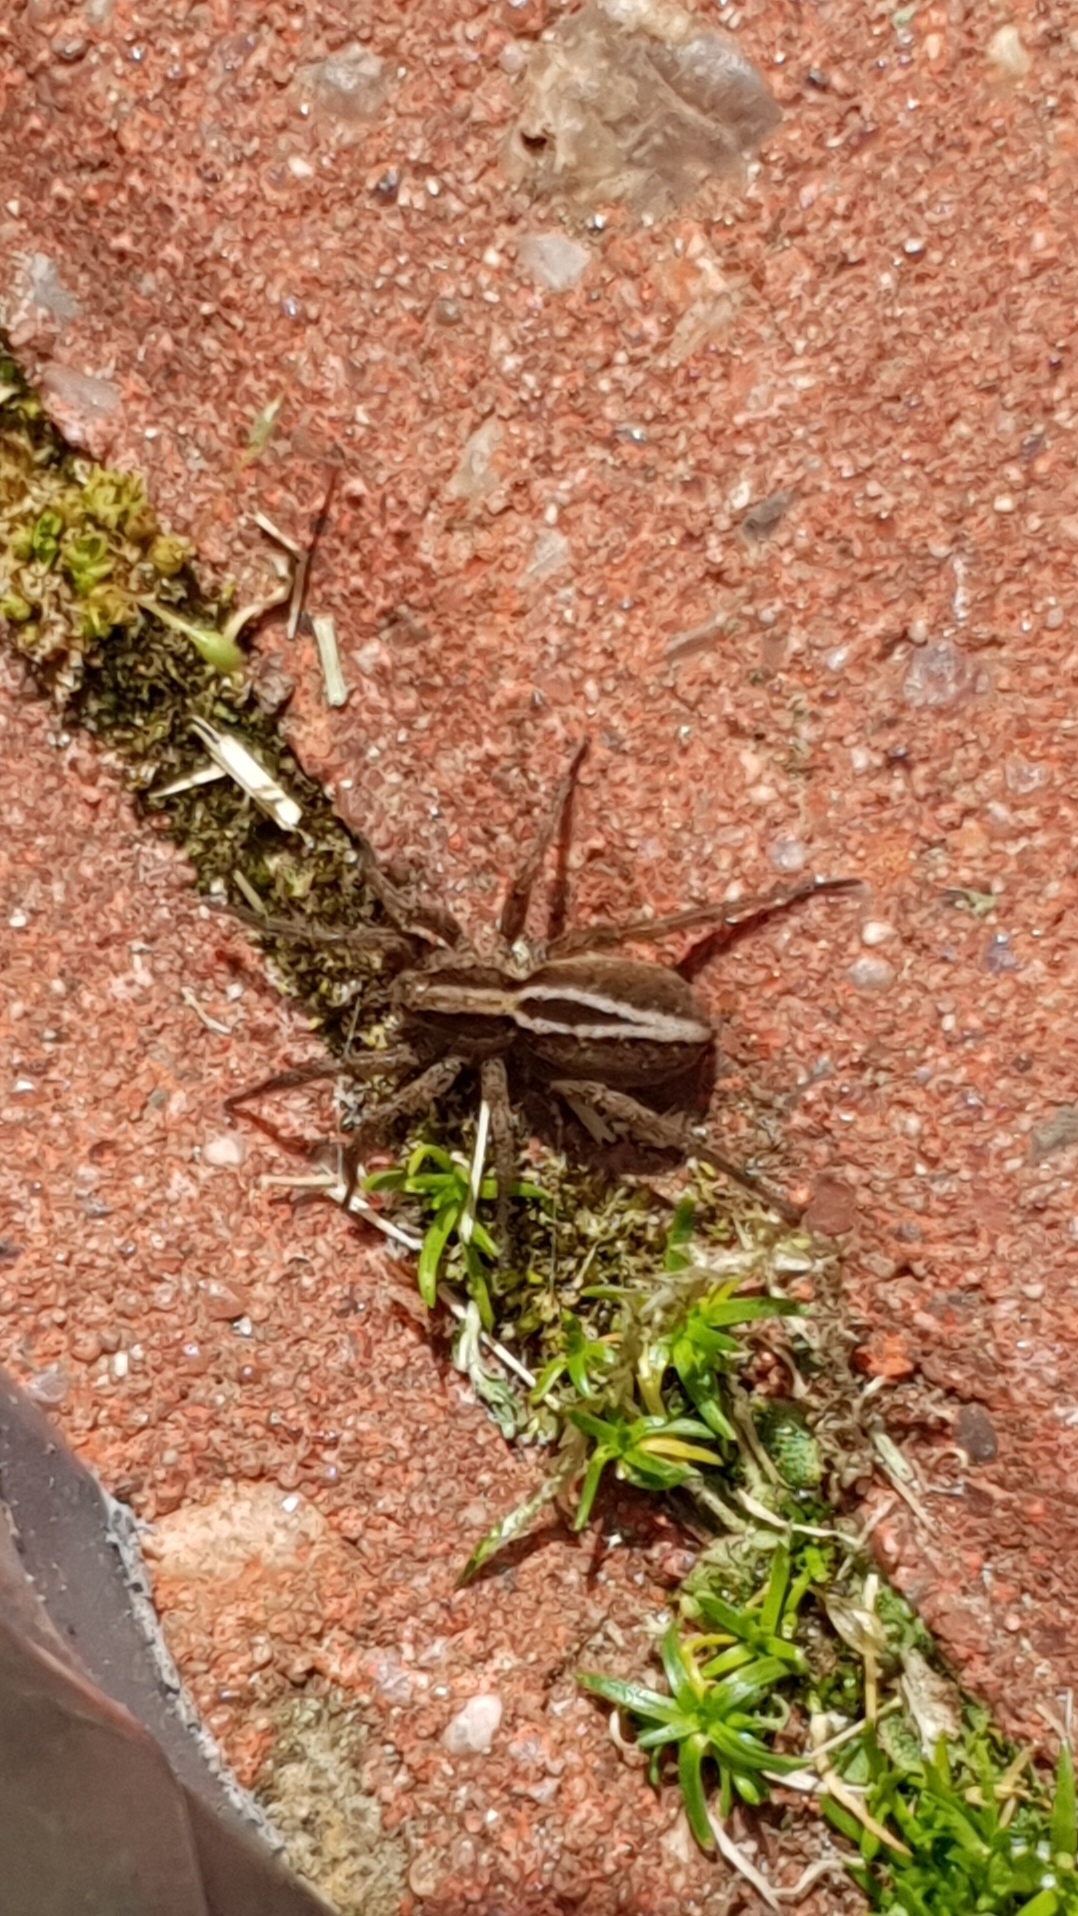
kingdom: Animalia
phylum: Arthropoda
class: Arachnida
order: Araneae
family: Lycosidae
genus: Alopecosa
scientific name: Alopecosa cuneata
